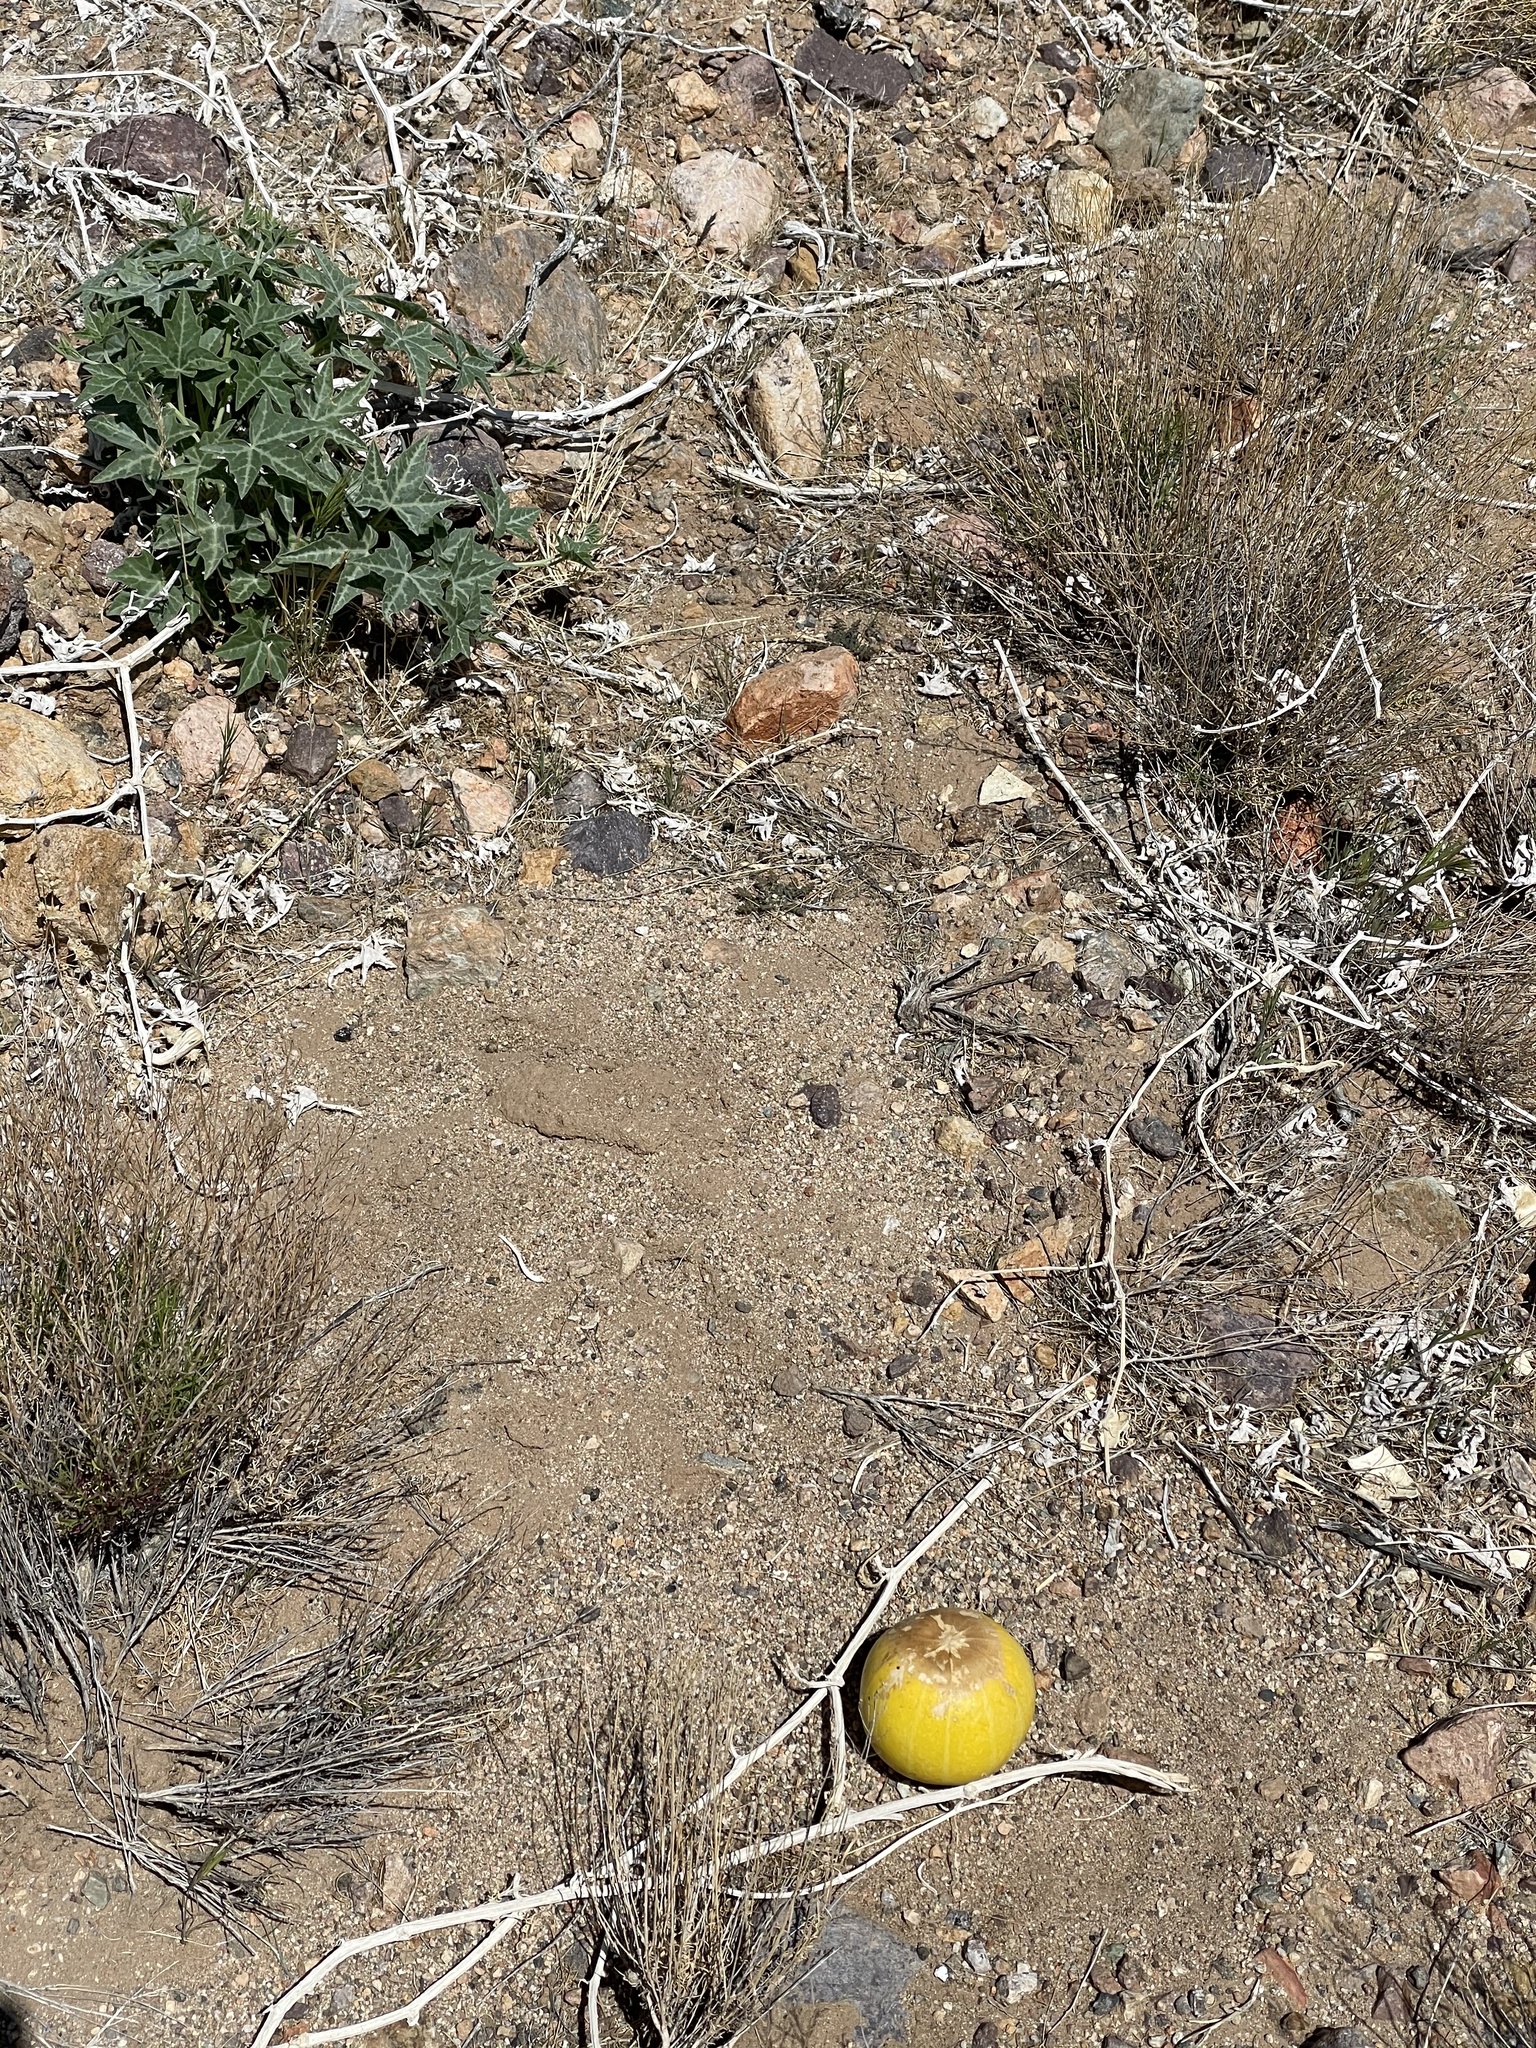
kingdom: Plantae
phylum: Tracheophyta
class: Magnoliopsida
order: Cucurbitales
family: Cucurbitaceae
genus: Cucurbita
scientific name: Cucurbita palmata
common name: Coyote-melon
